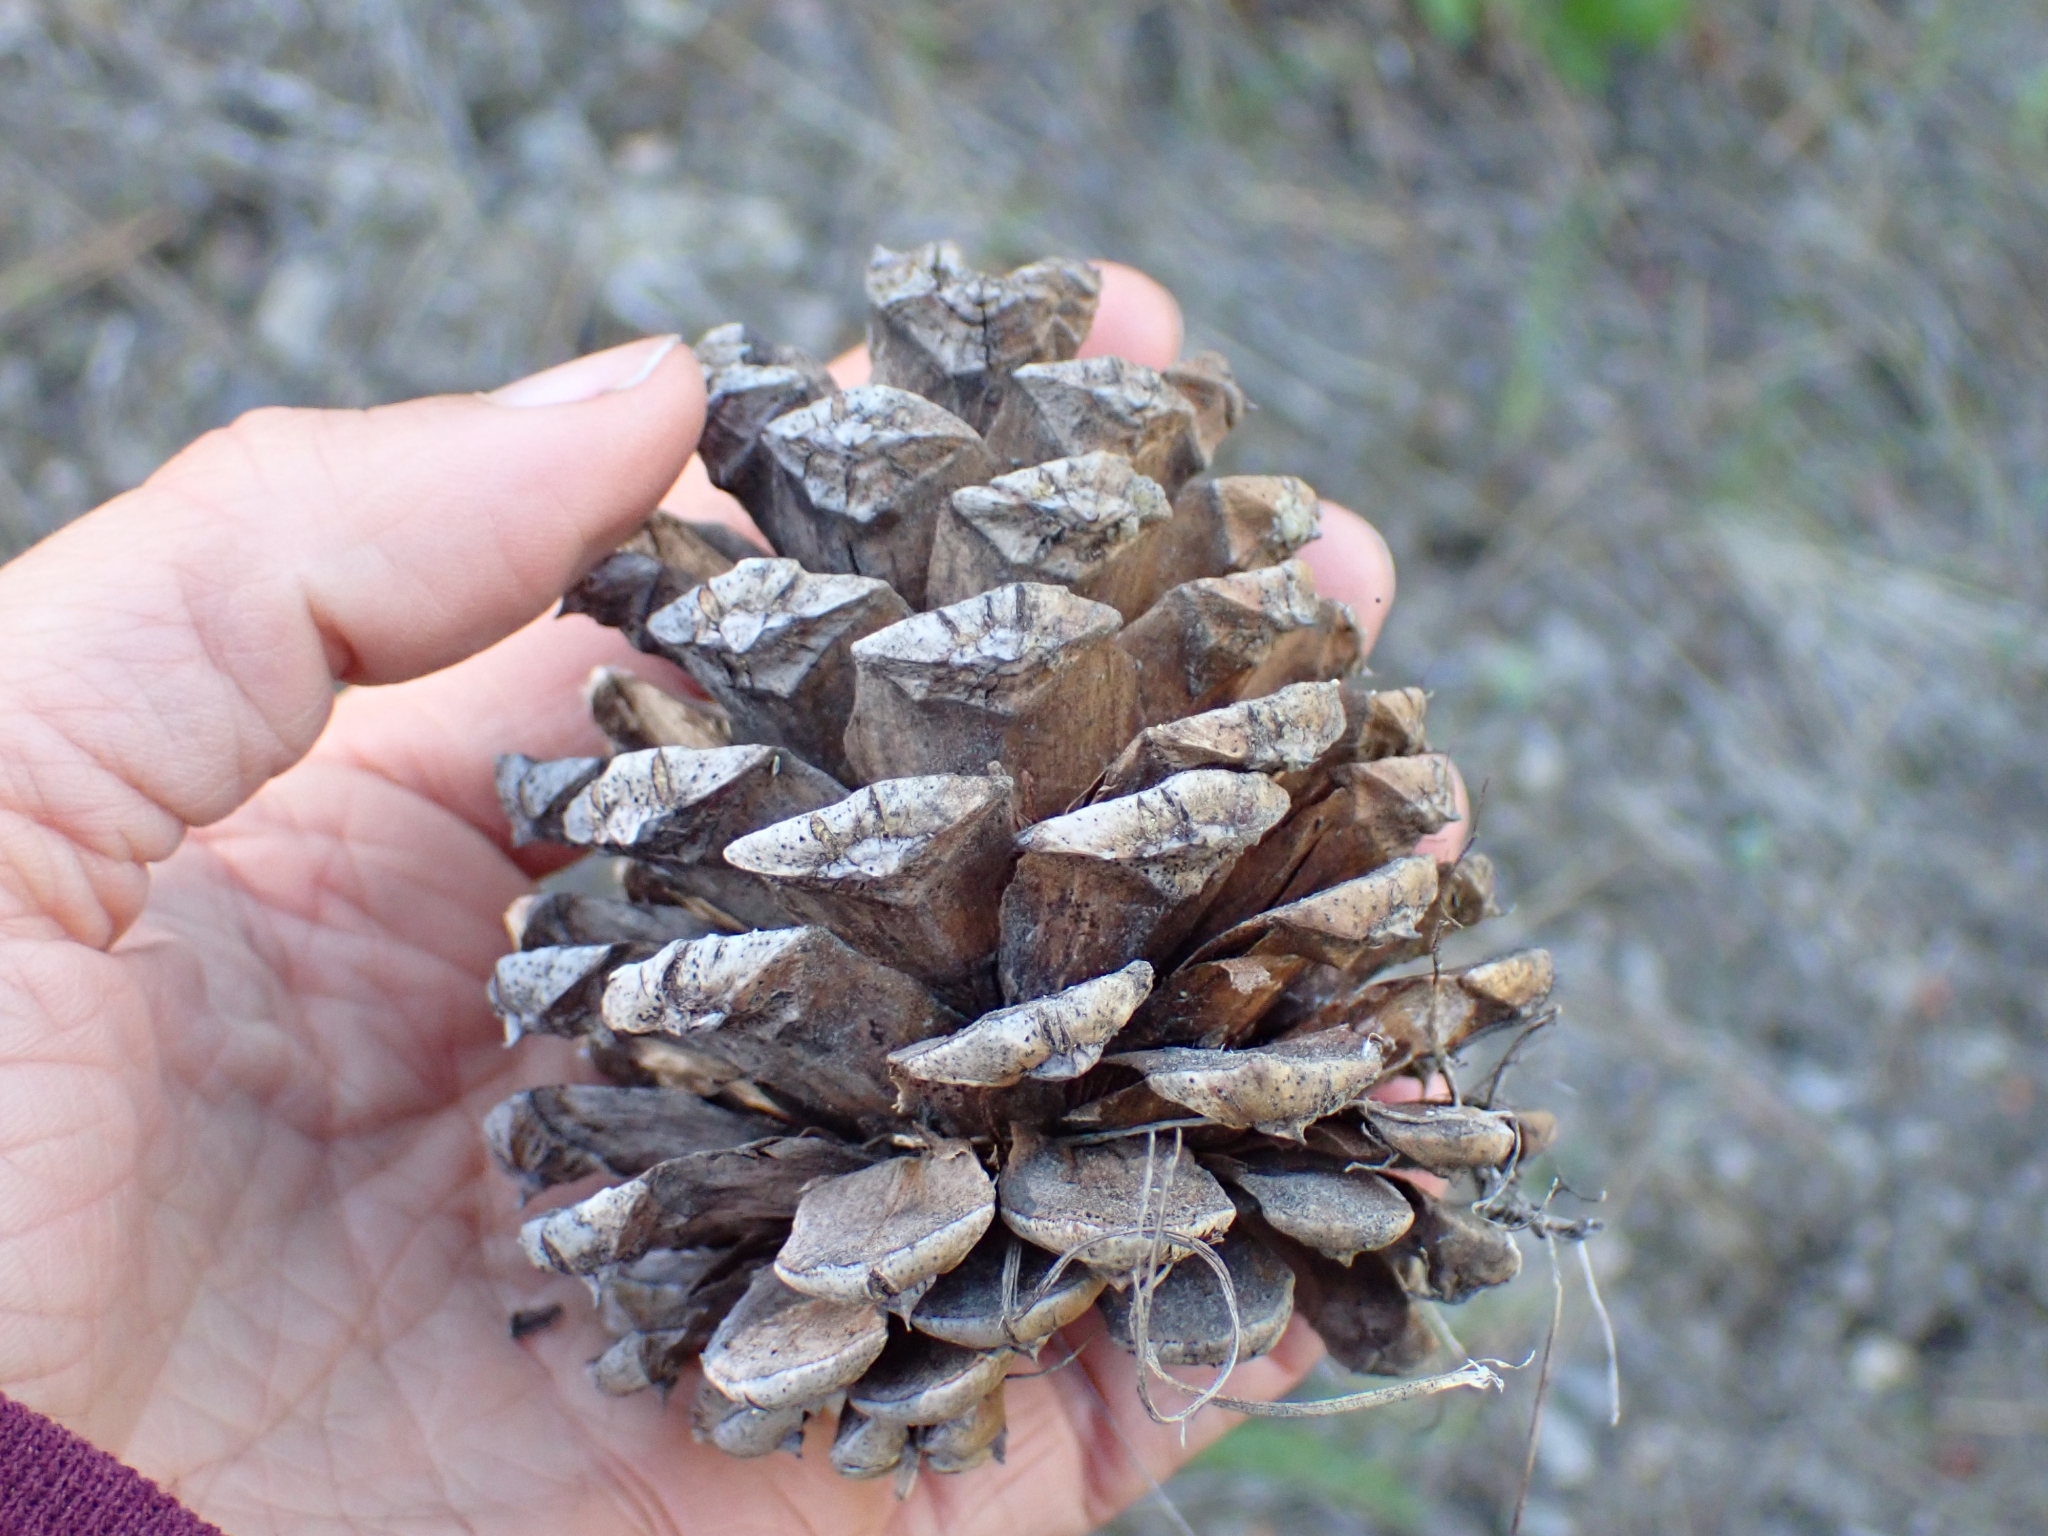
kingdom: Plantae
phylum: Tracheophyta
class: Pinopsida
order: Pinales
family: Pinaceae
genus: Pinus
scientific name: Pinus ponderosa
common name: Western yellow-pine
